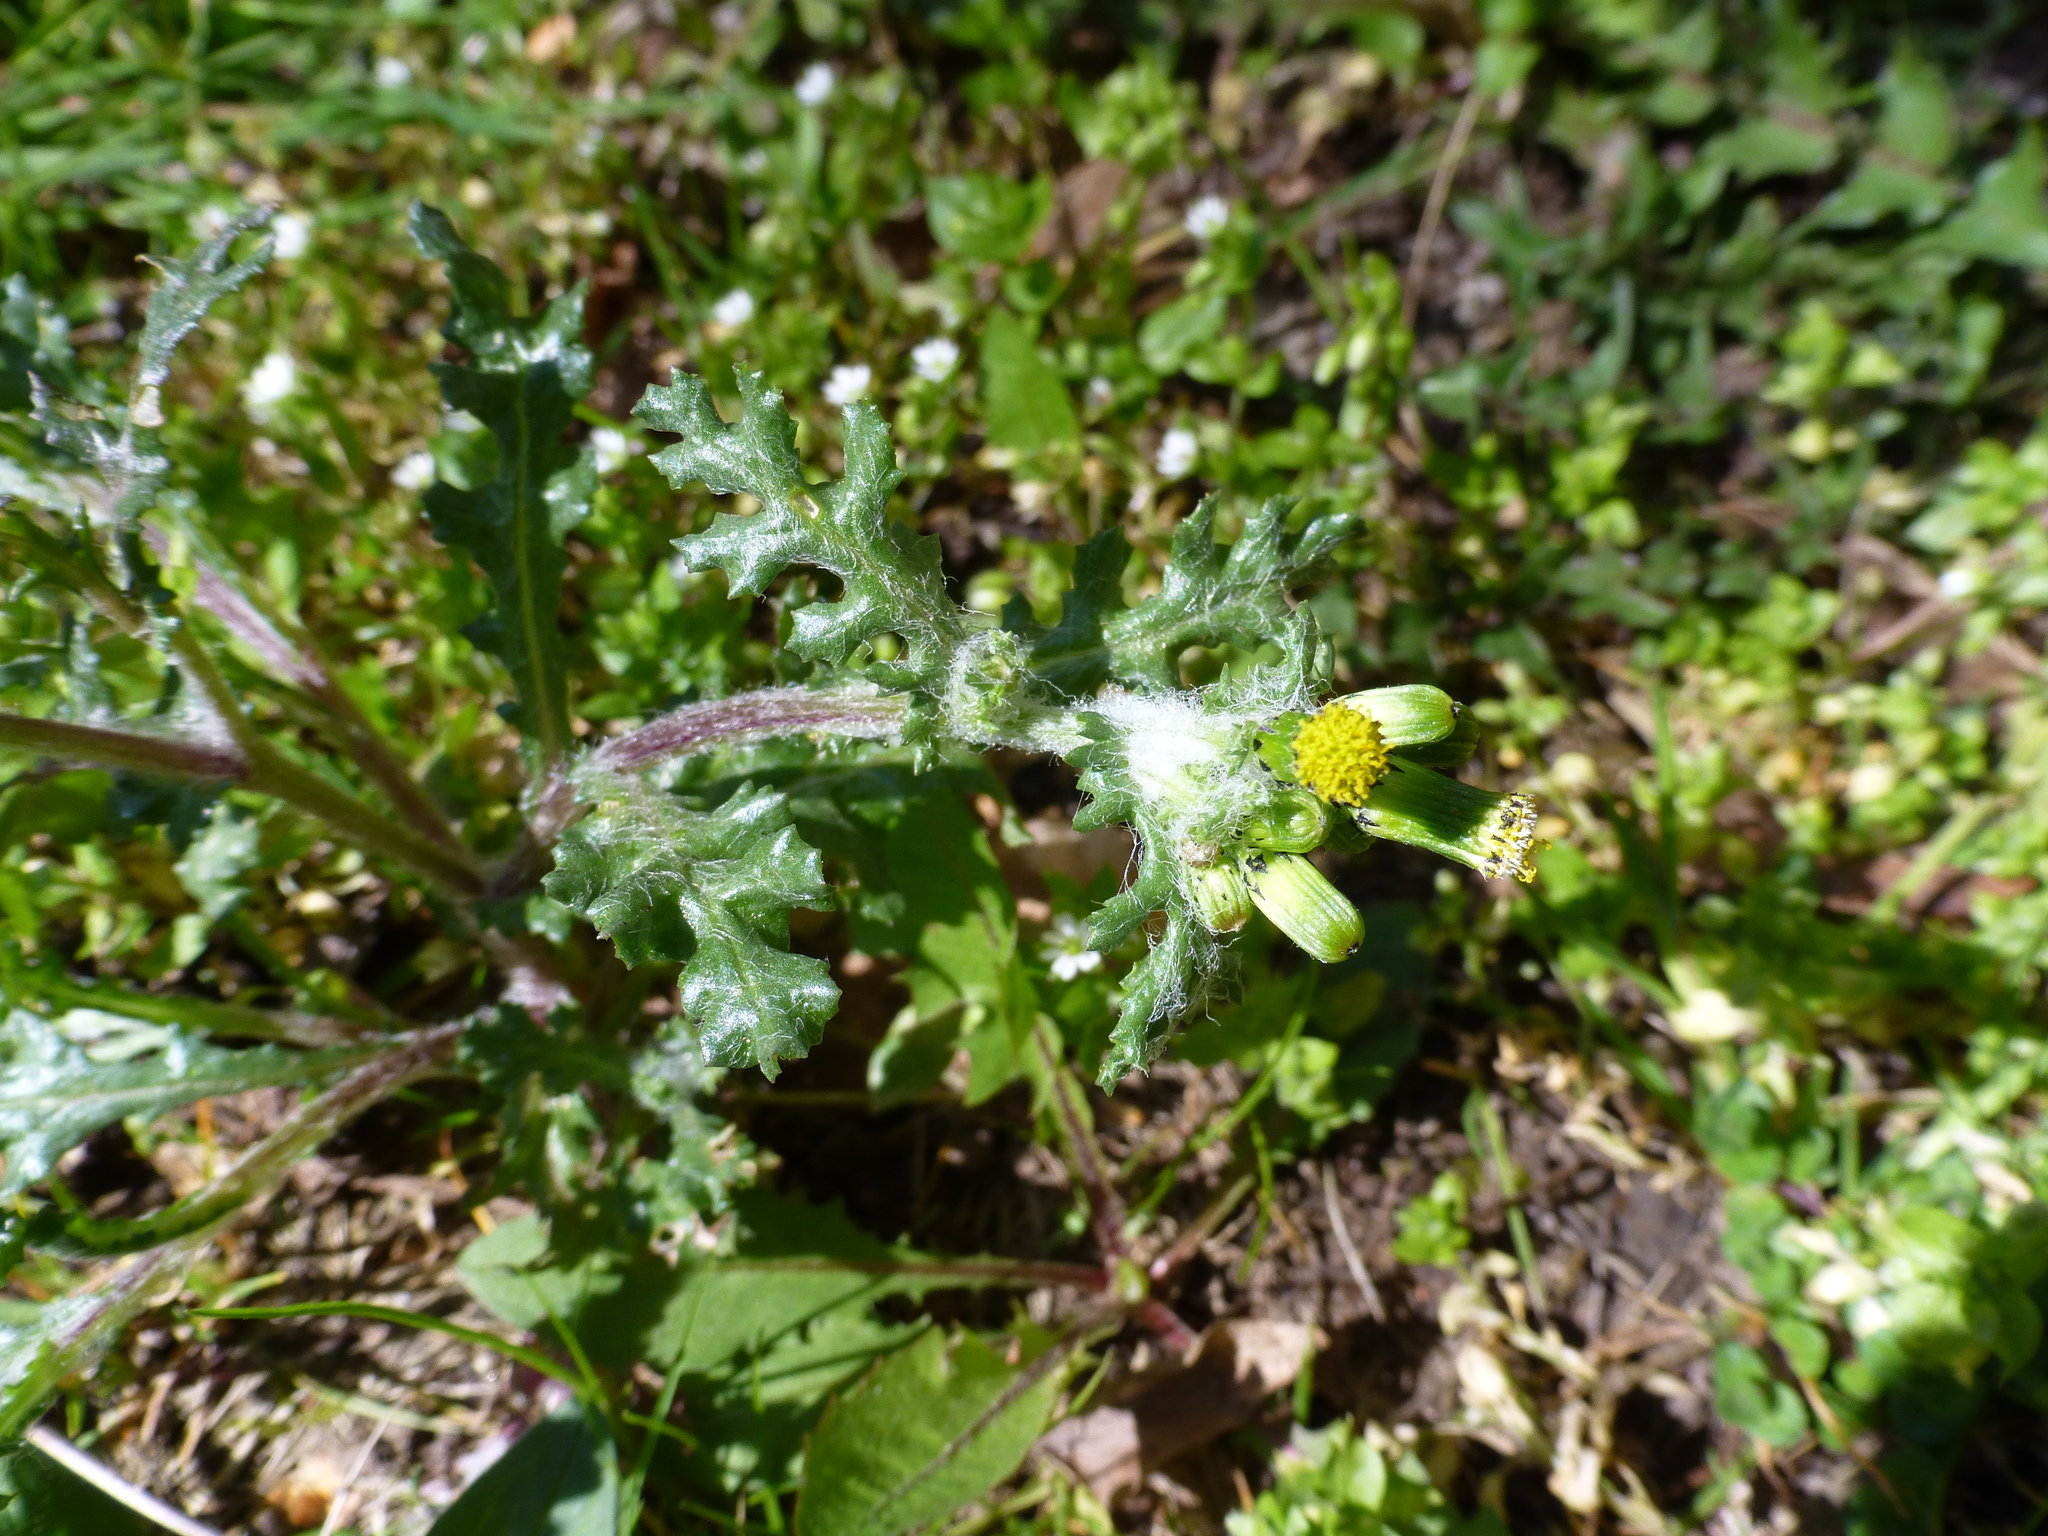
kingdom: Plantae
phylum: Tracheophyta
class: Magnoliopsida
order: Asterales
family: Asteraceae
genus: Senecio
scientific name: Senecio vulgaris
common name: Old-man-in-the-spring
